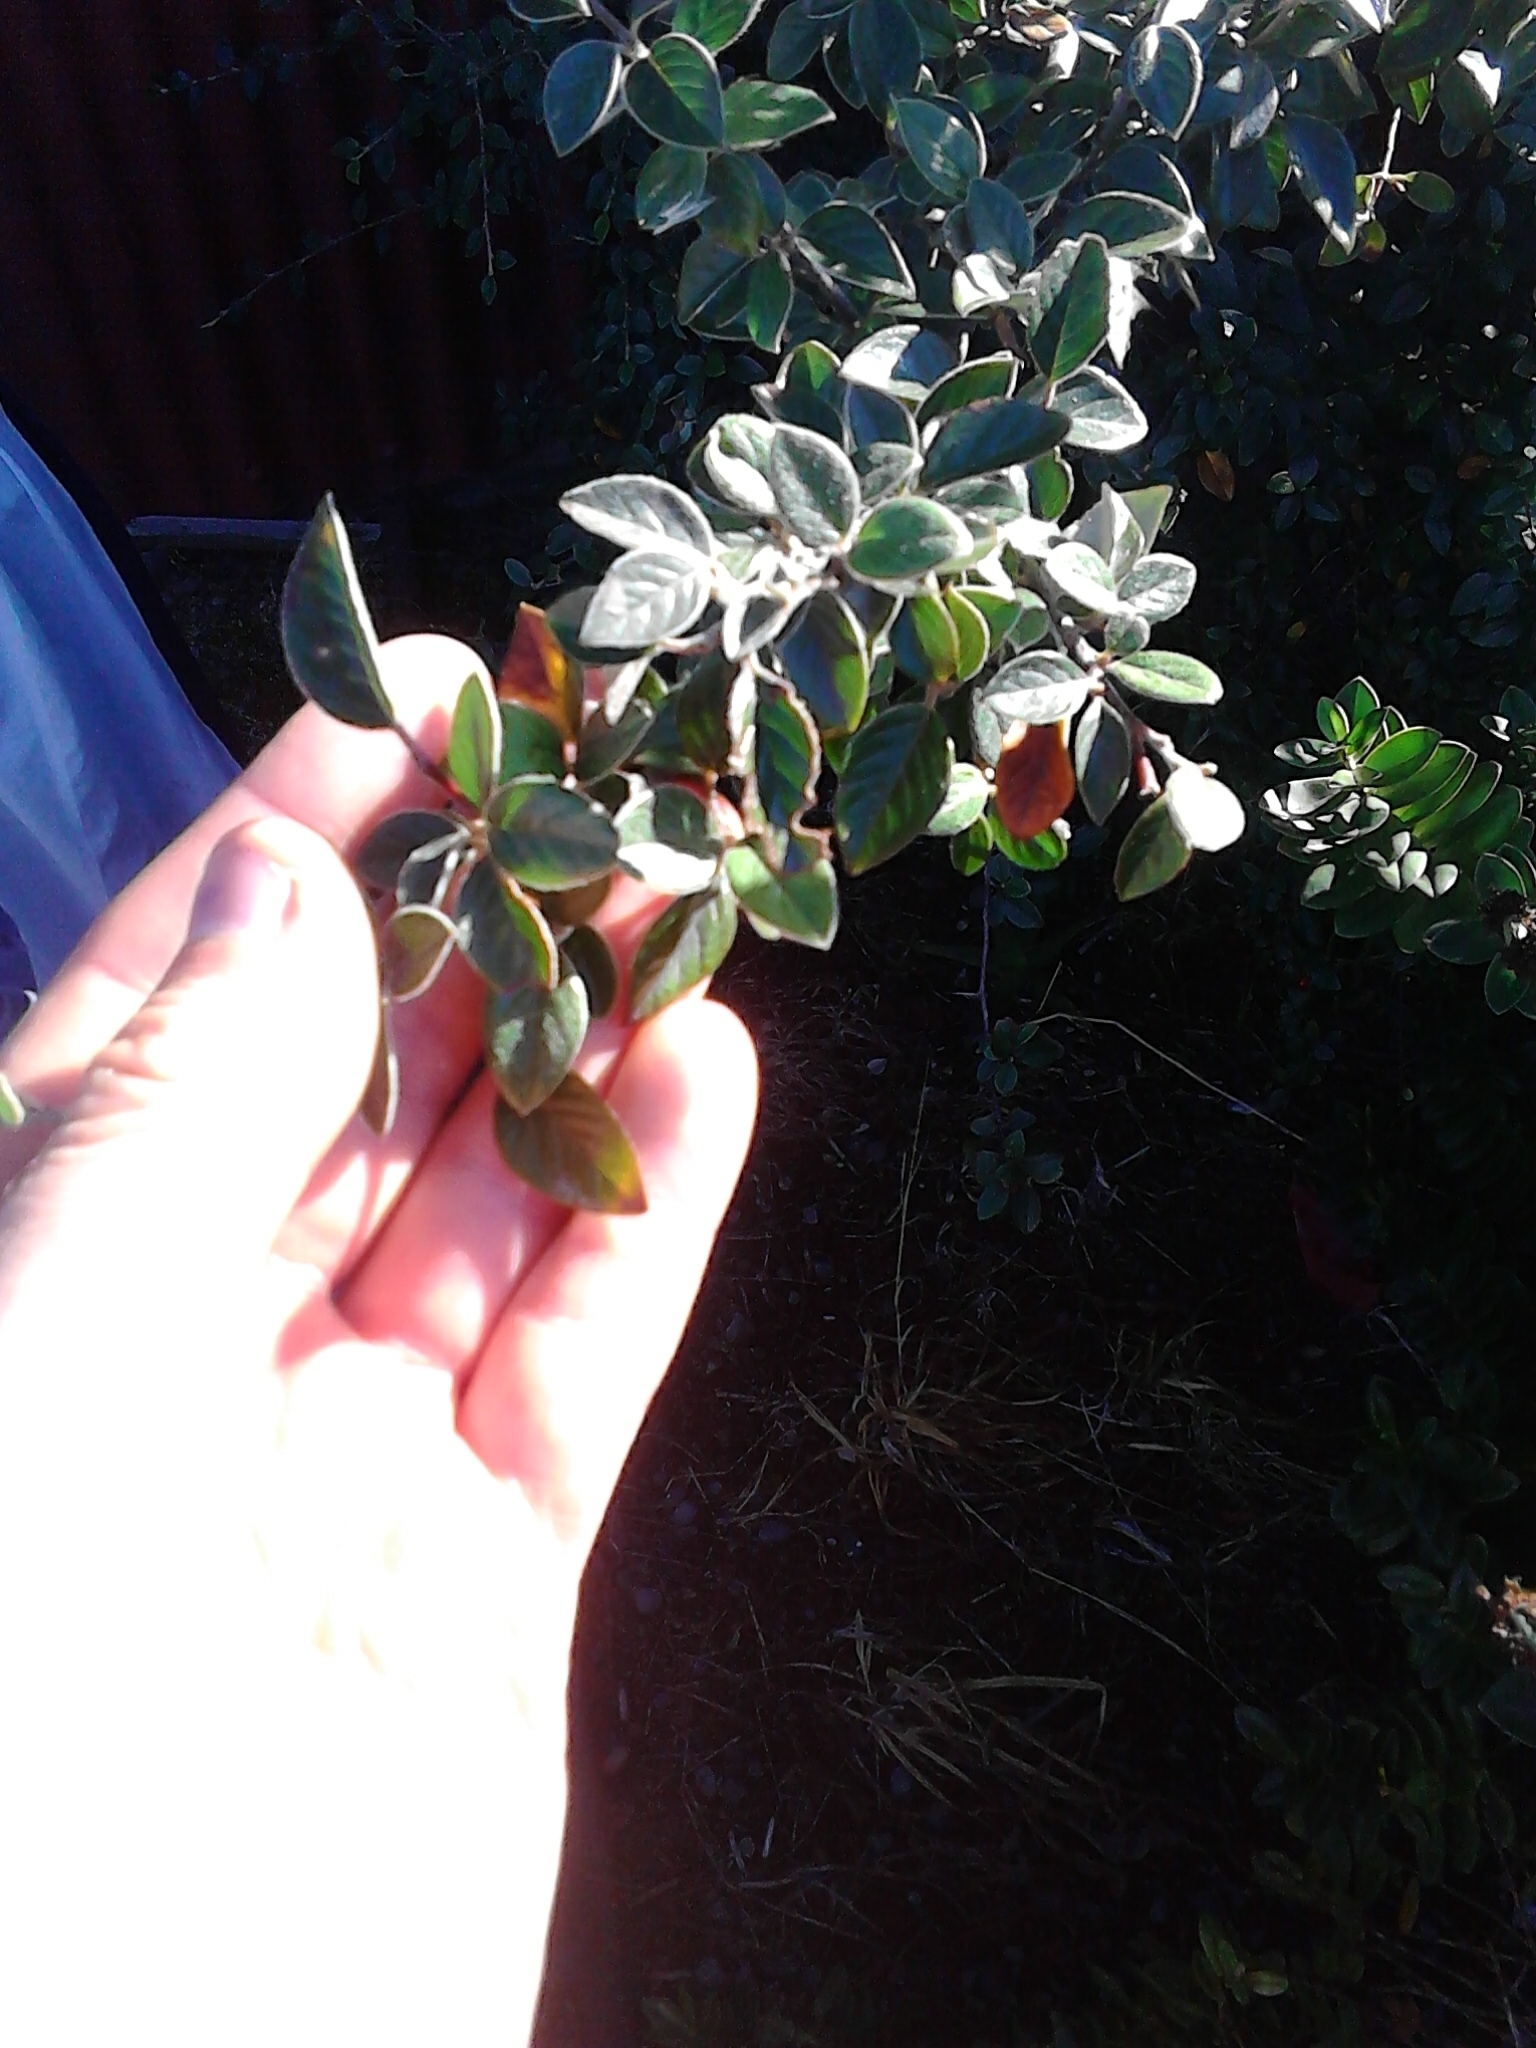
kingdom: Plantae
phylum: Tracheophyta
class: Magnoliopsida
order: Rosales
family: Rosaceae
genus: Cotoneaster
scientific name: Cotoneaster simonsii
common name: Himalayan cotoneaster
